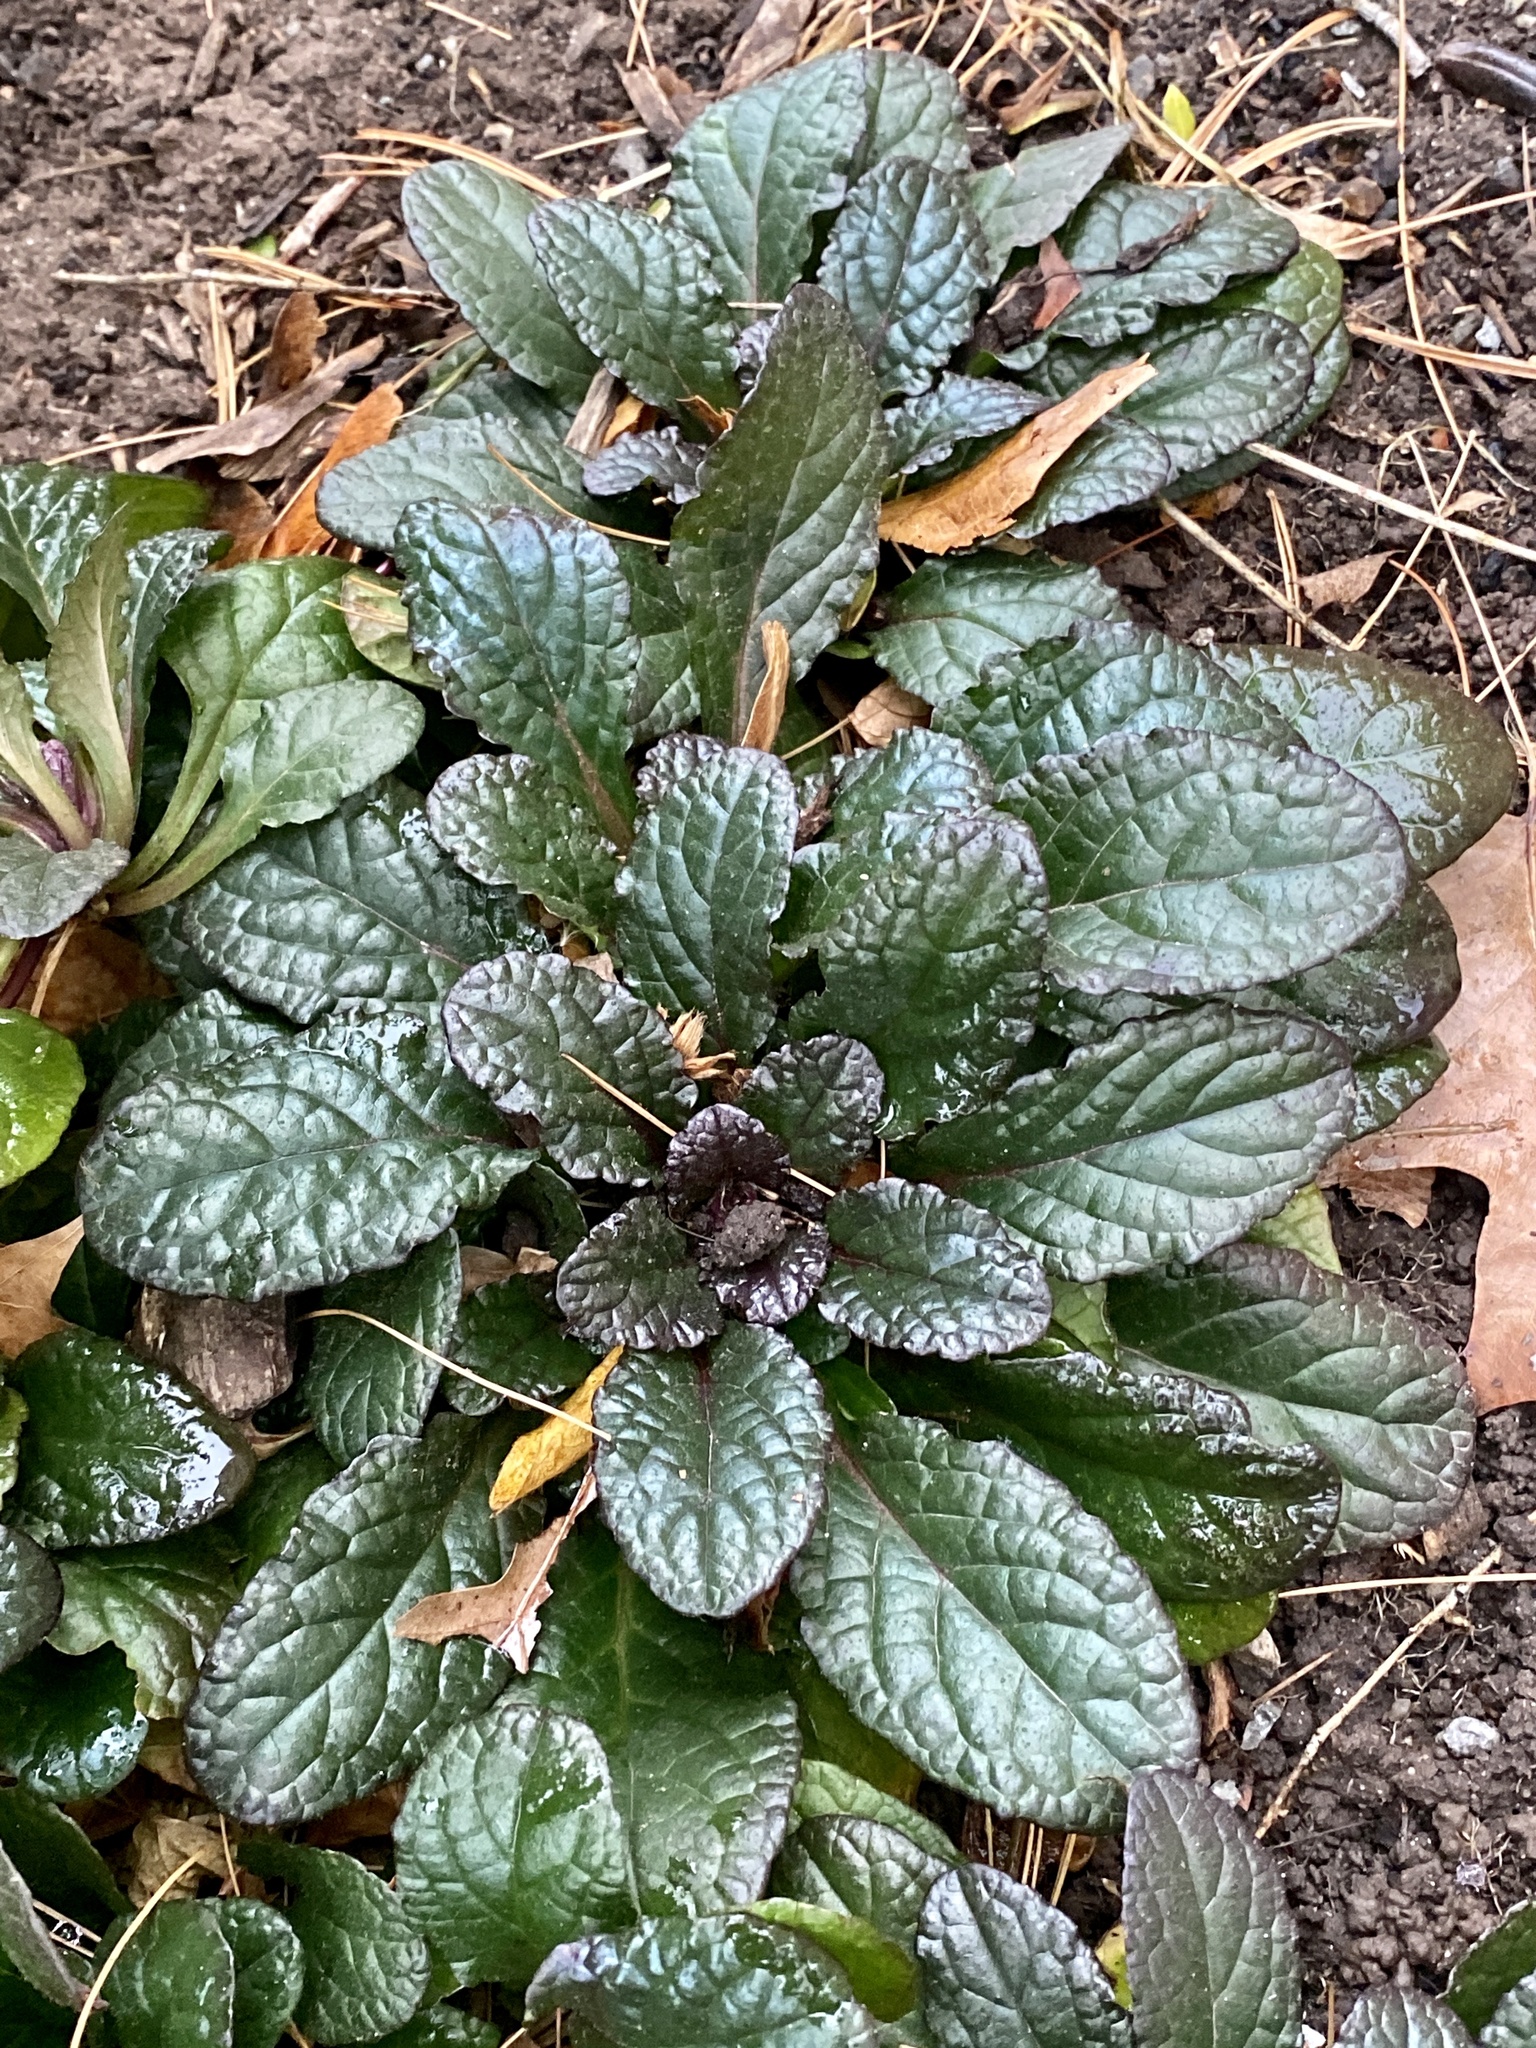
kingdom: Plantae
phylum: Tracheophyta
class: Magnoliopsida
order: Lamiales
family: Lamiaceae
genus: Ajuga
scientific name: Ajuga reptans
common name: Bugle
